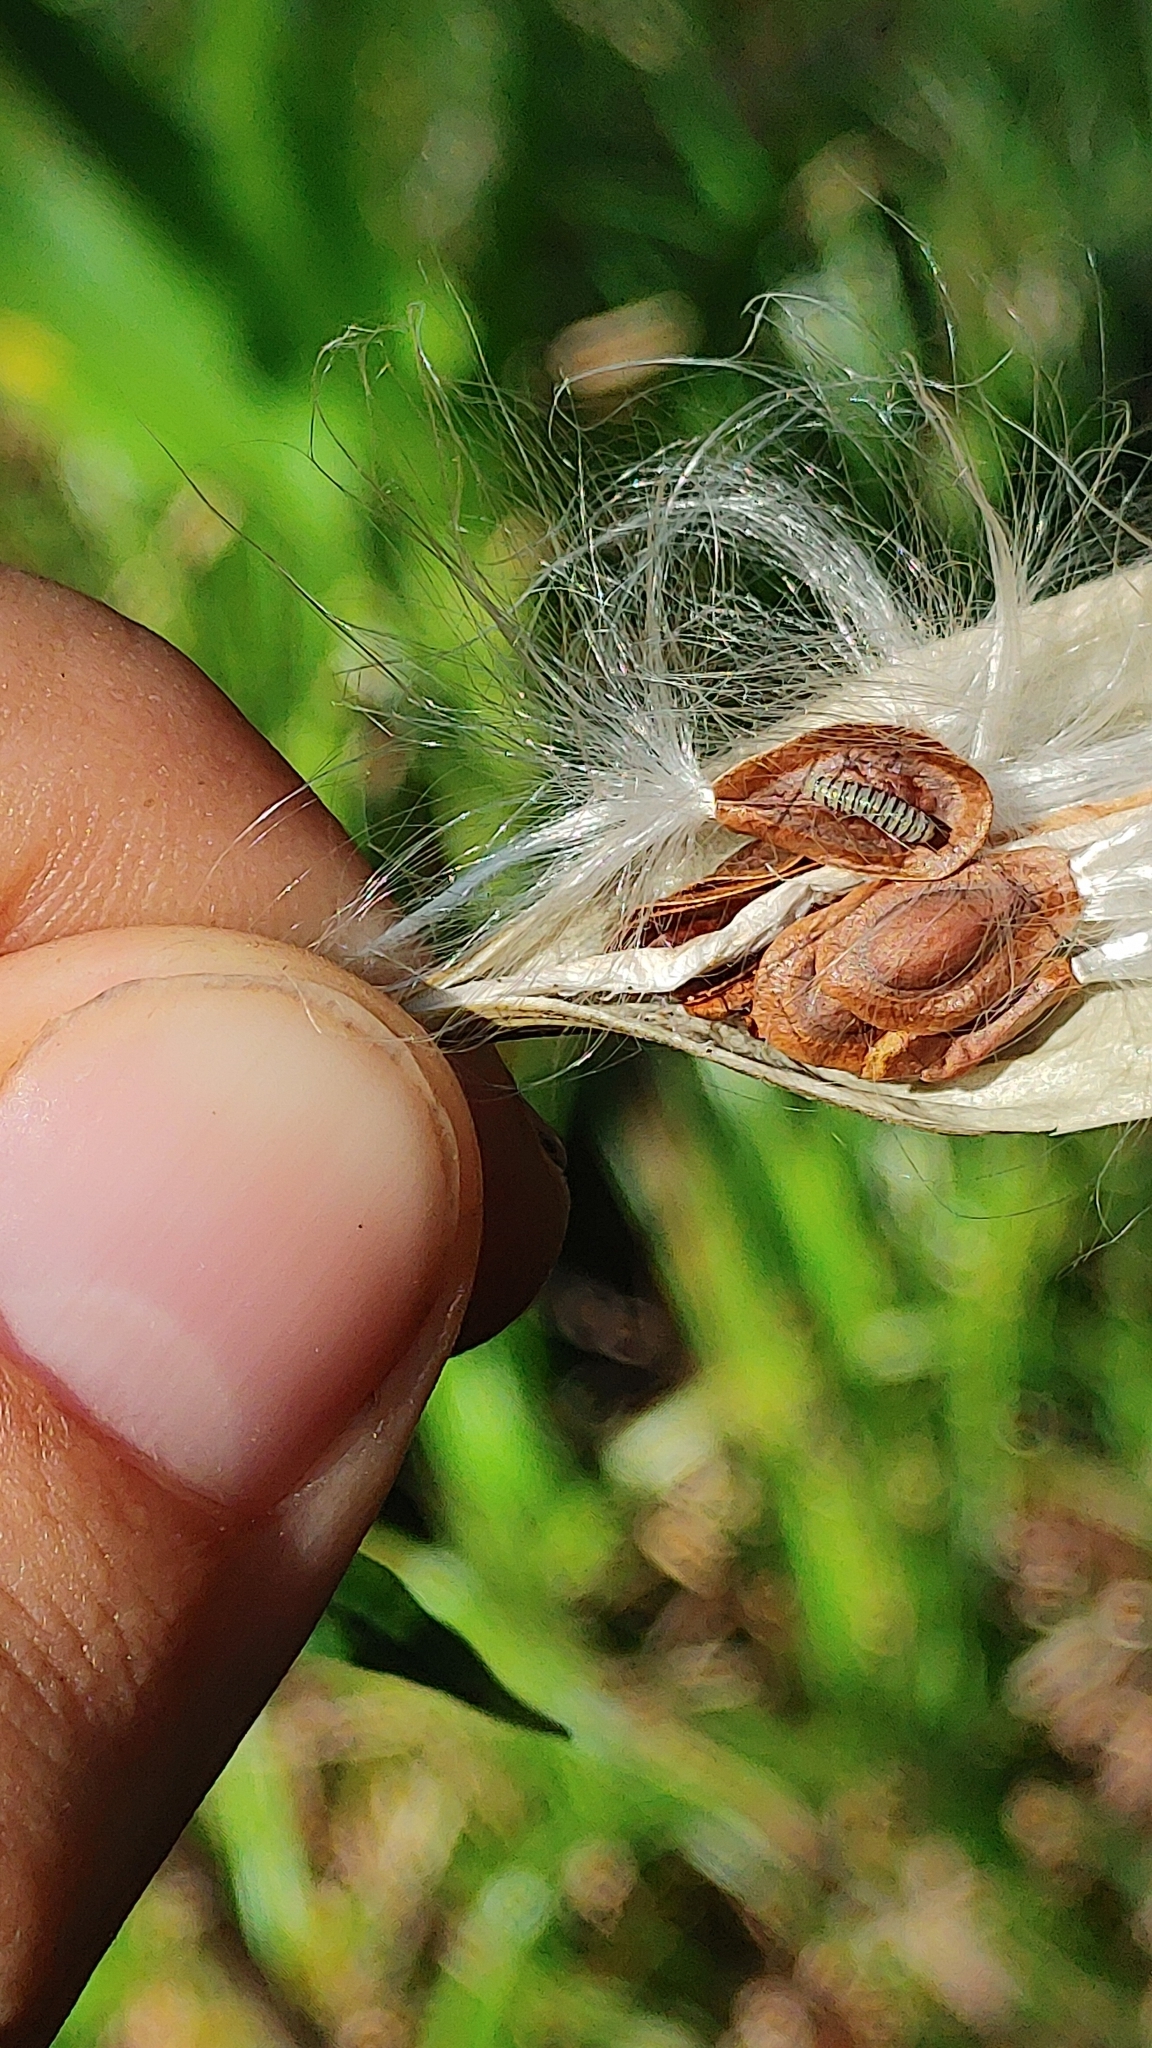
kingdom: Animalia
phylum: Arthropoda
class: Insecta
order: Lepidoptera
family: Nymphalidae
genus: Danaus
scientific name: Danaus plexippus
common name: Monarch
